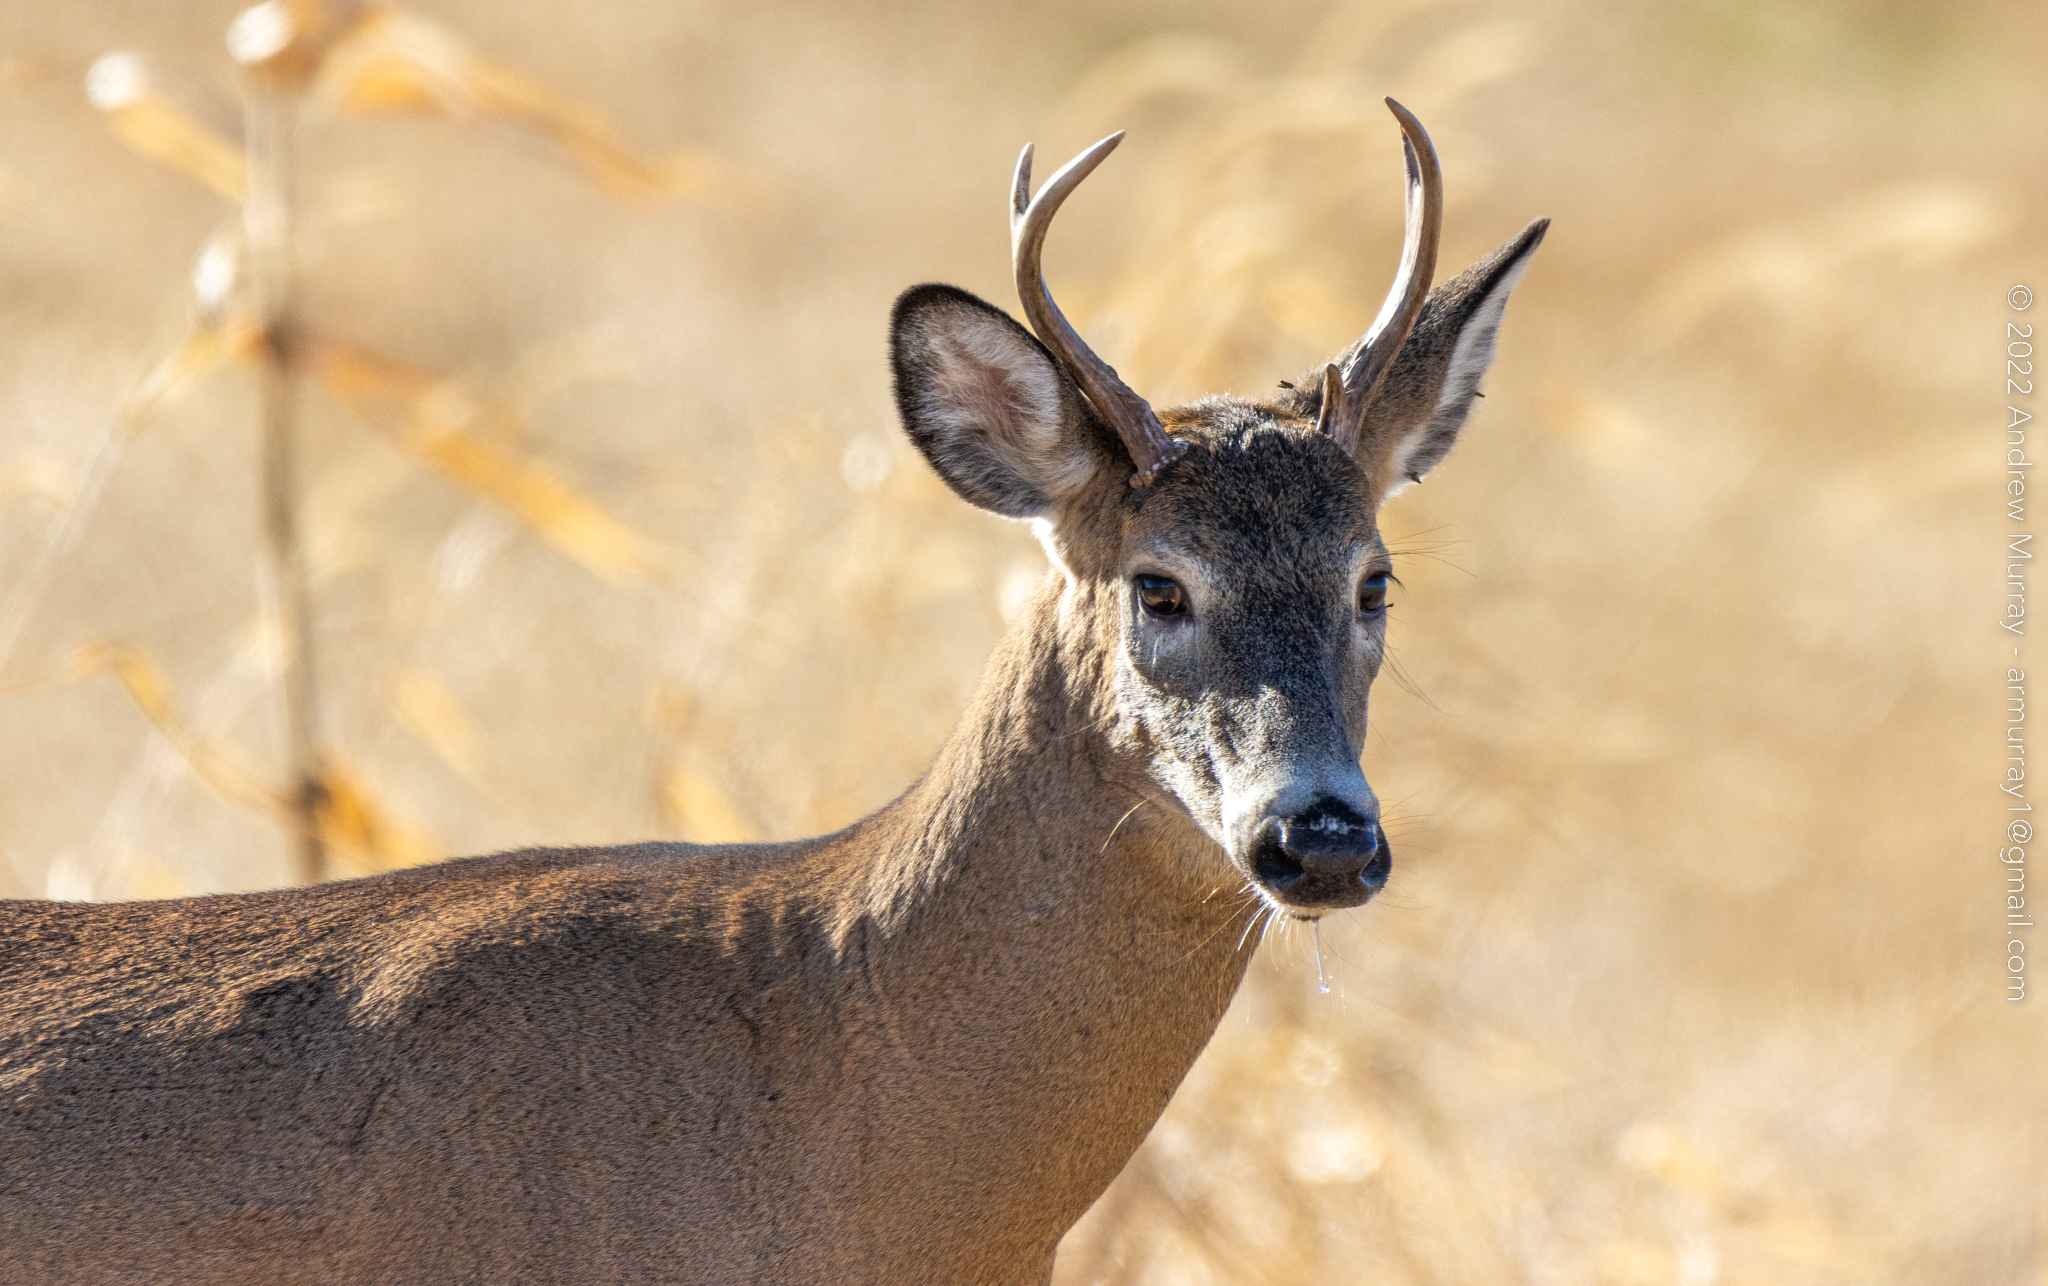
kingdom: Animalia
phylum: Chordata
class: Mammalia
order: Artiodactyla
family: Cervidae
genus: Odocoileus
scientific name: Odocoileus virginianus
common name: White-tailed deer
